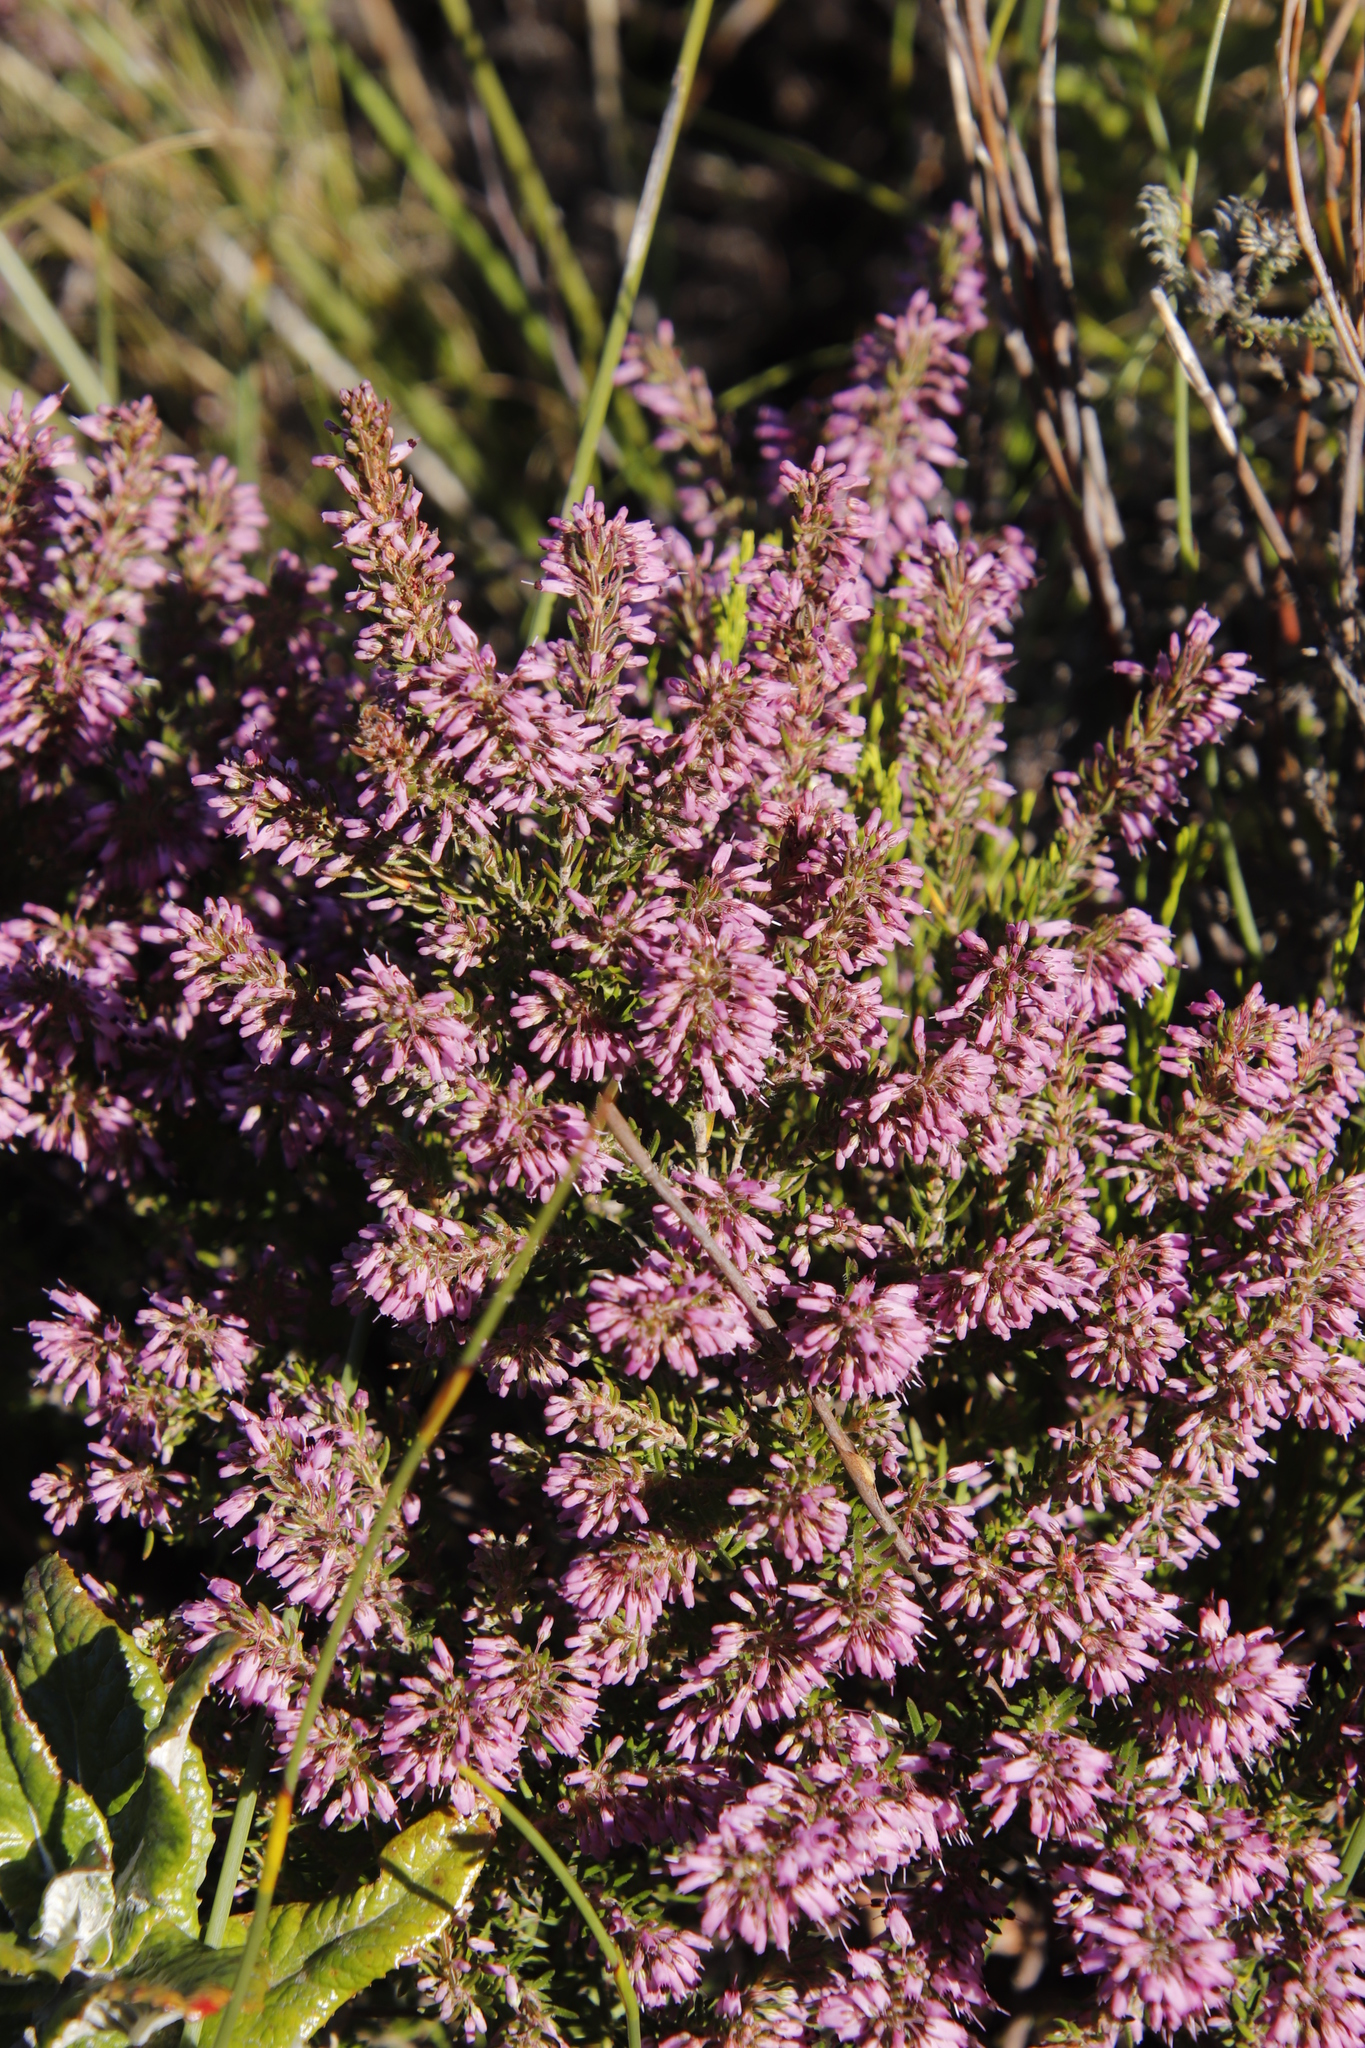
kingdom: Plantae
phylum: Tracheophyta
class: Magnoliopsida
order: Ericales
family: Ericaceae
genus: Erica
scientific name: Erica nudiflora
